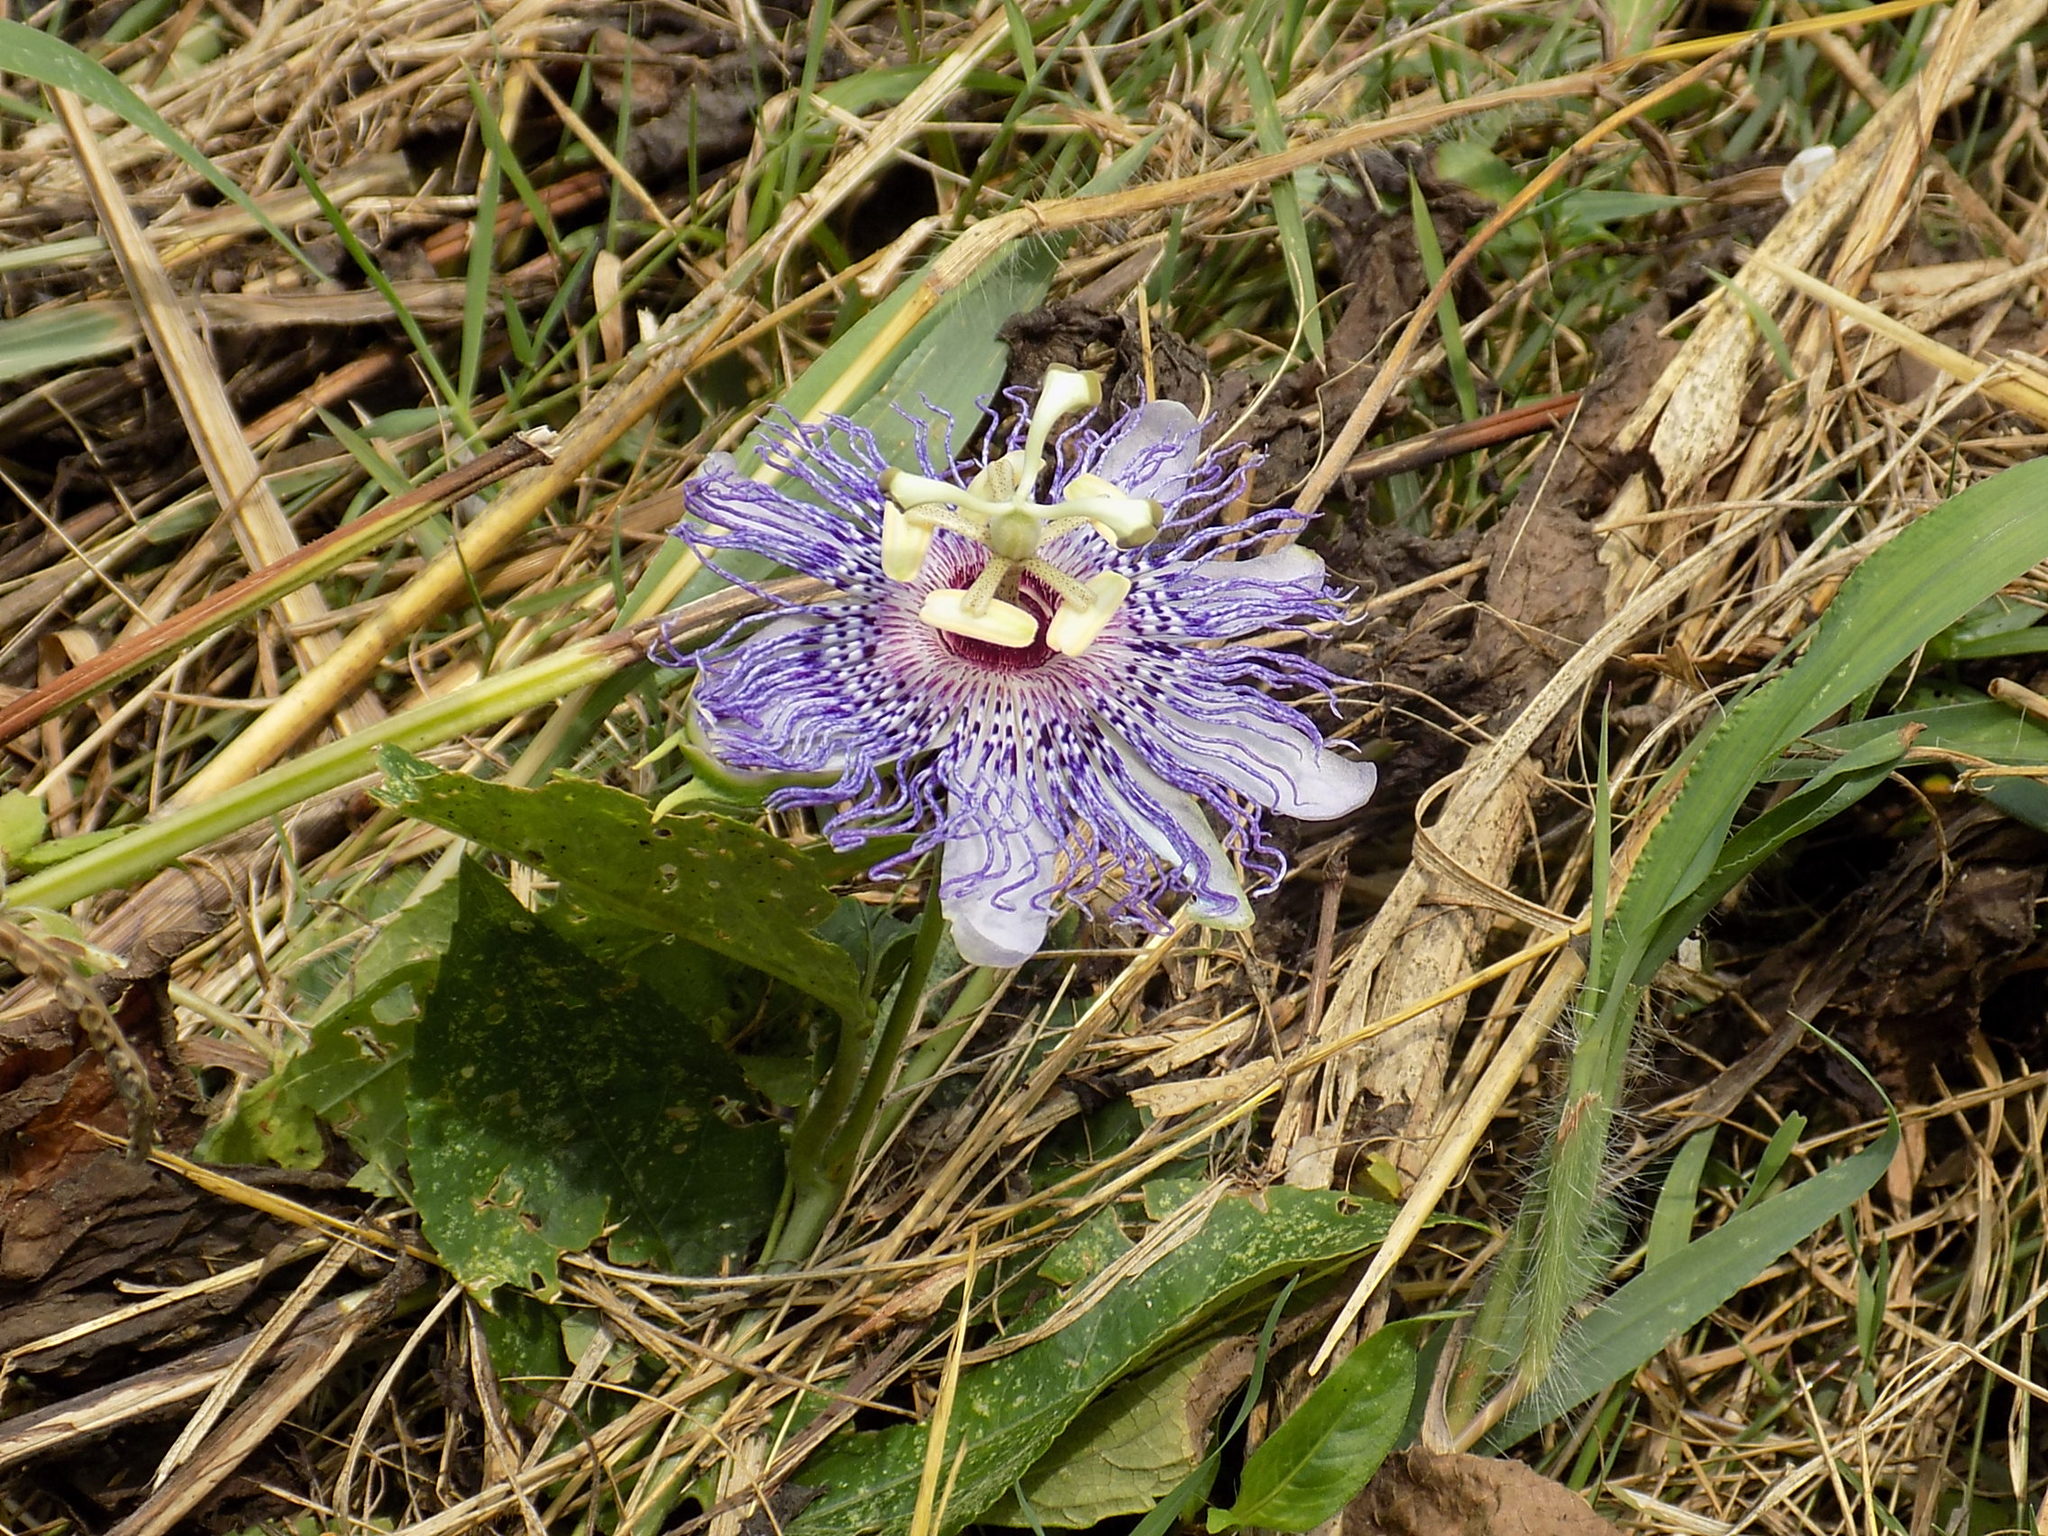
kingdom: Plantae
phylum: Tracheophyta
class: Magnoliopsida
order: Malpighiales
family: Passifloraceae
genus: Passiflora
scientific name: Passiflora incarnata
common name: Apricot-vine
